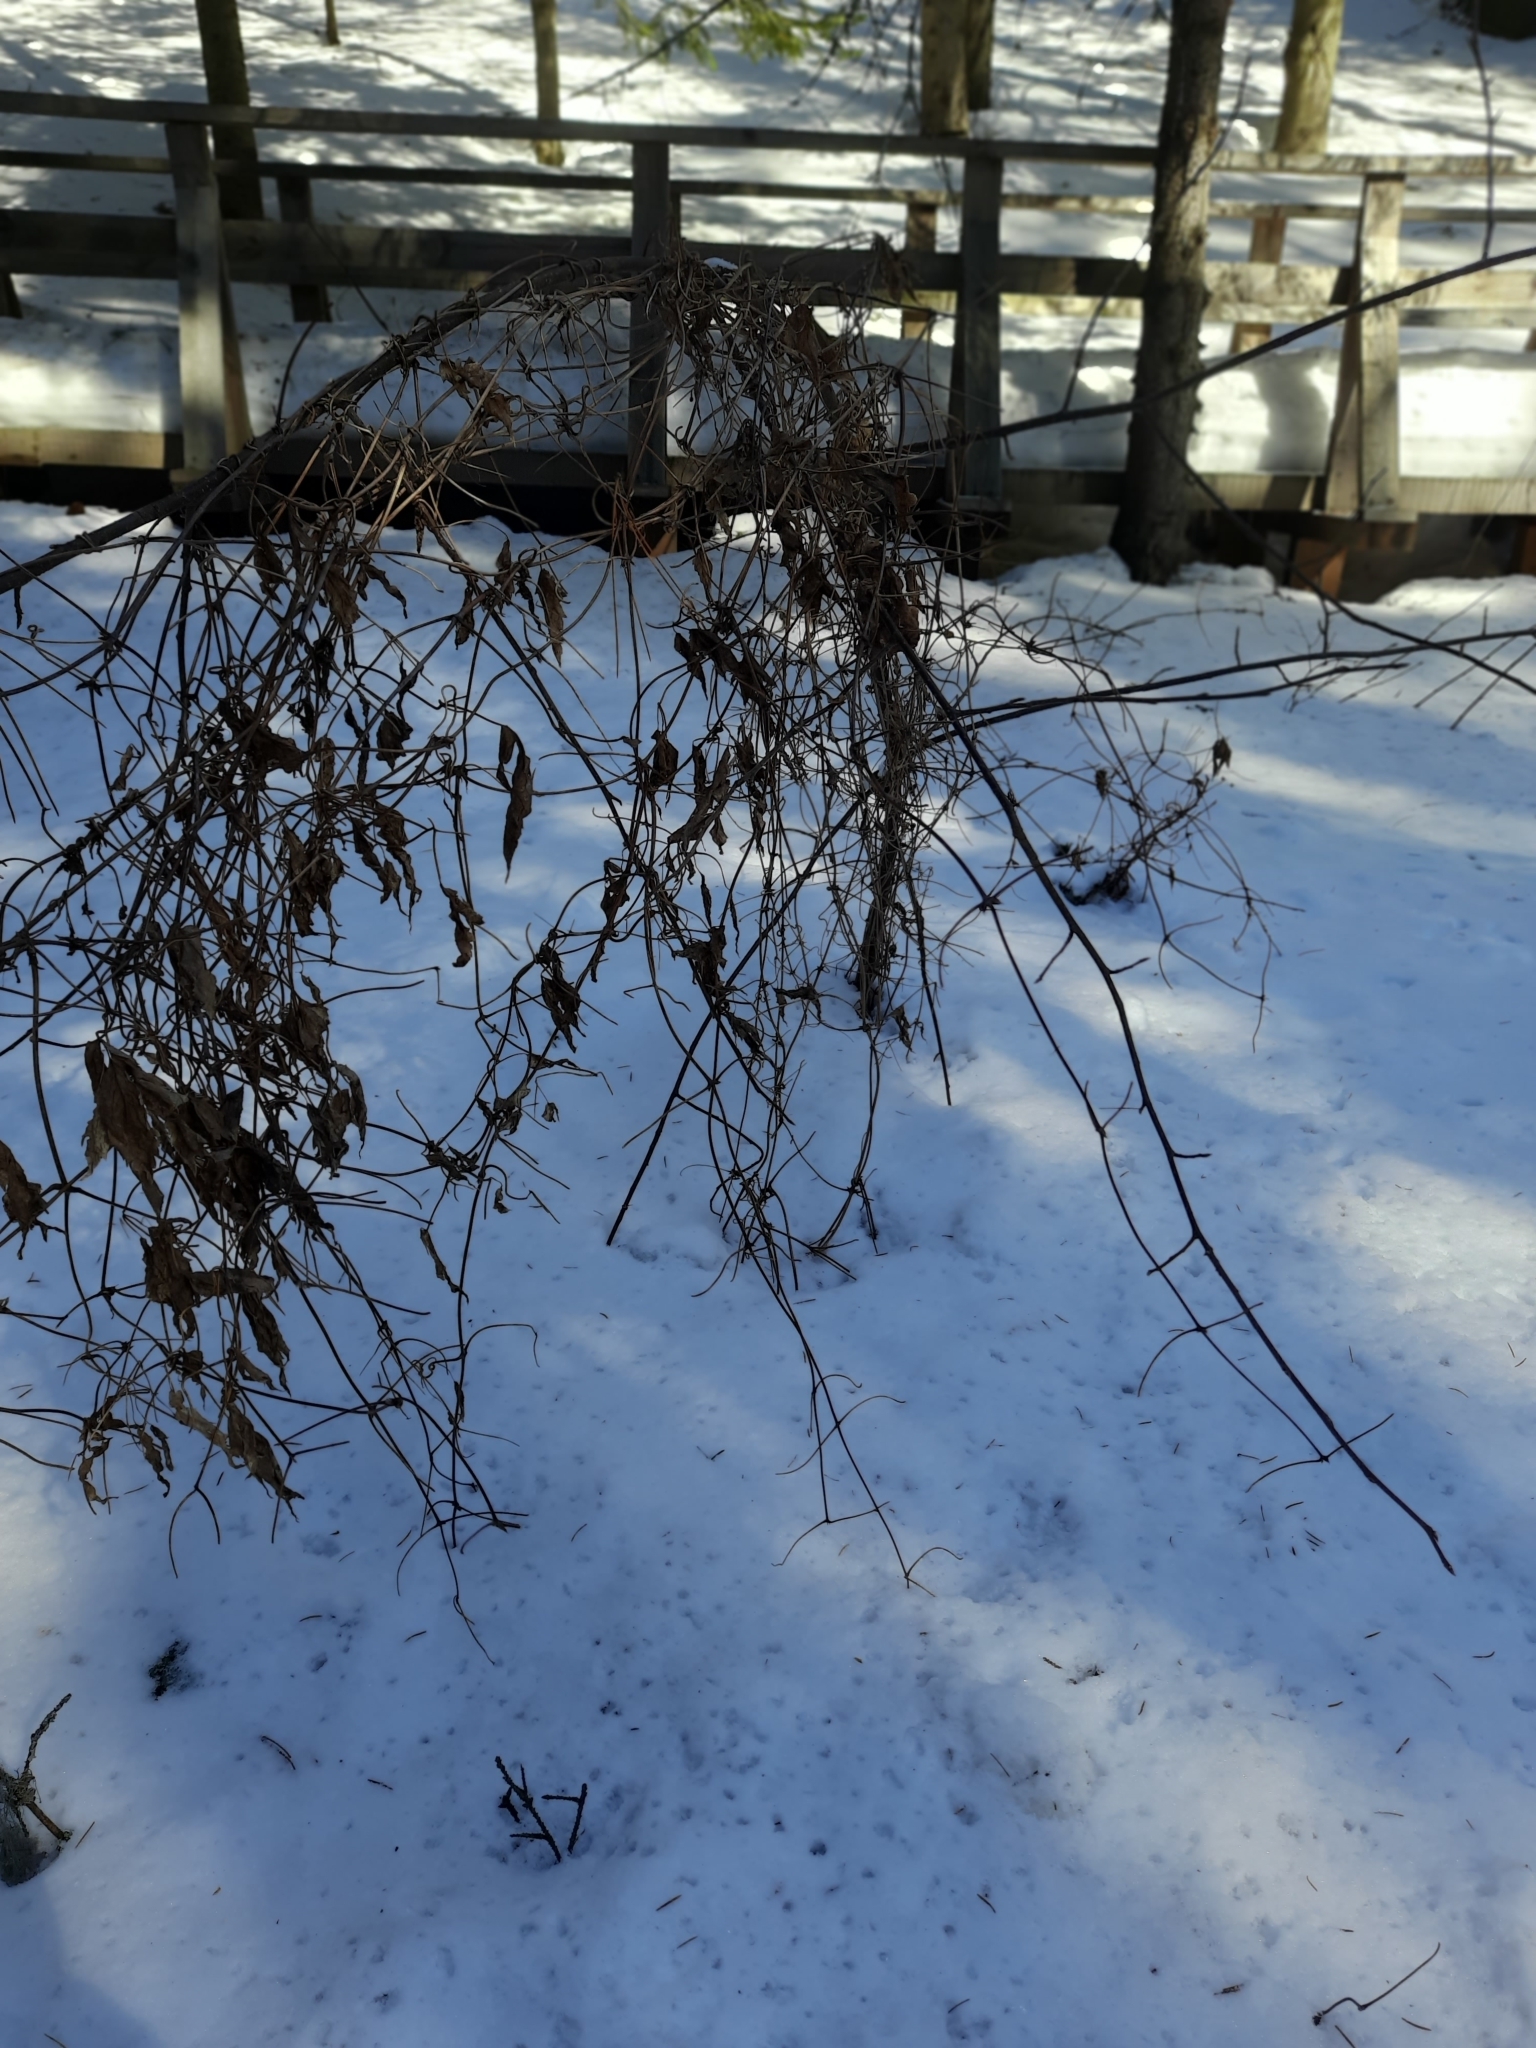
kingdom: Plantae
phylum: Tracheophyta
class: Magnoliopsida
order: Ranunculales
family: Ranunculaceae
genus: Clematis
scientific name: Clematis sibirica
